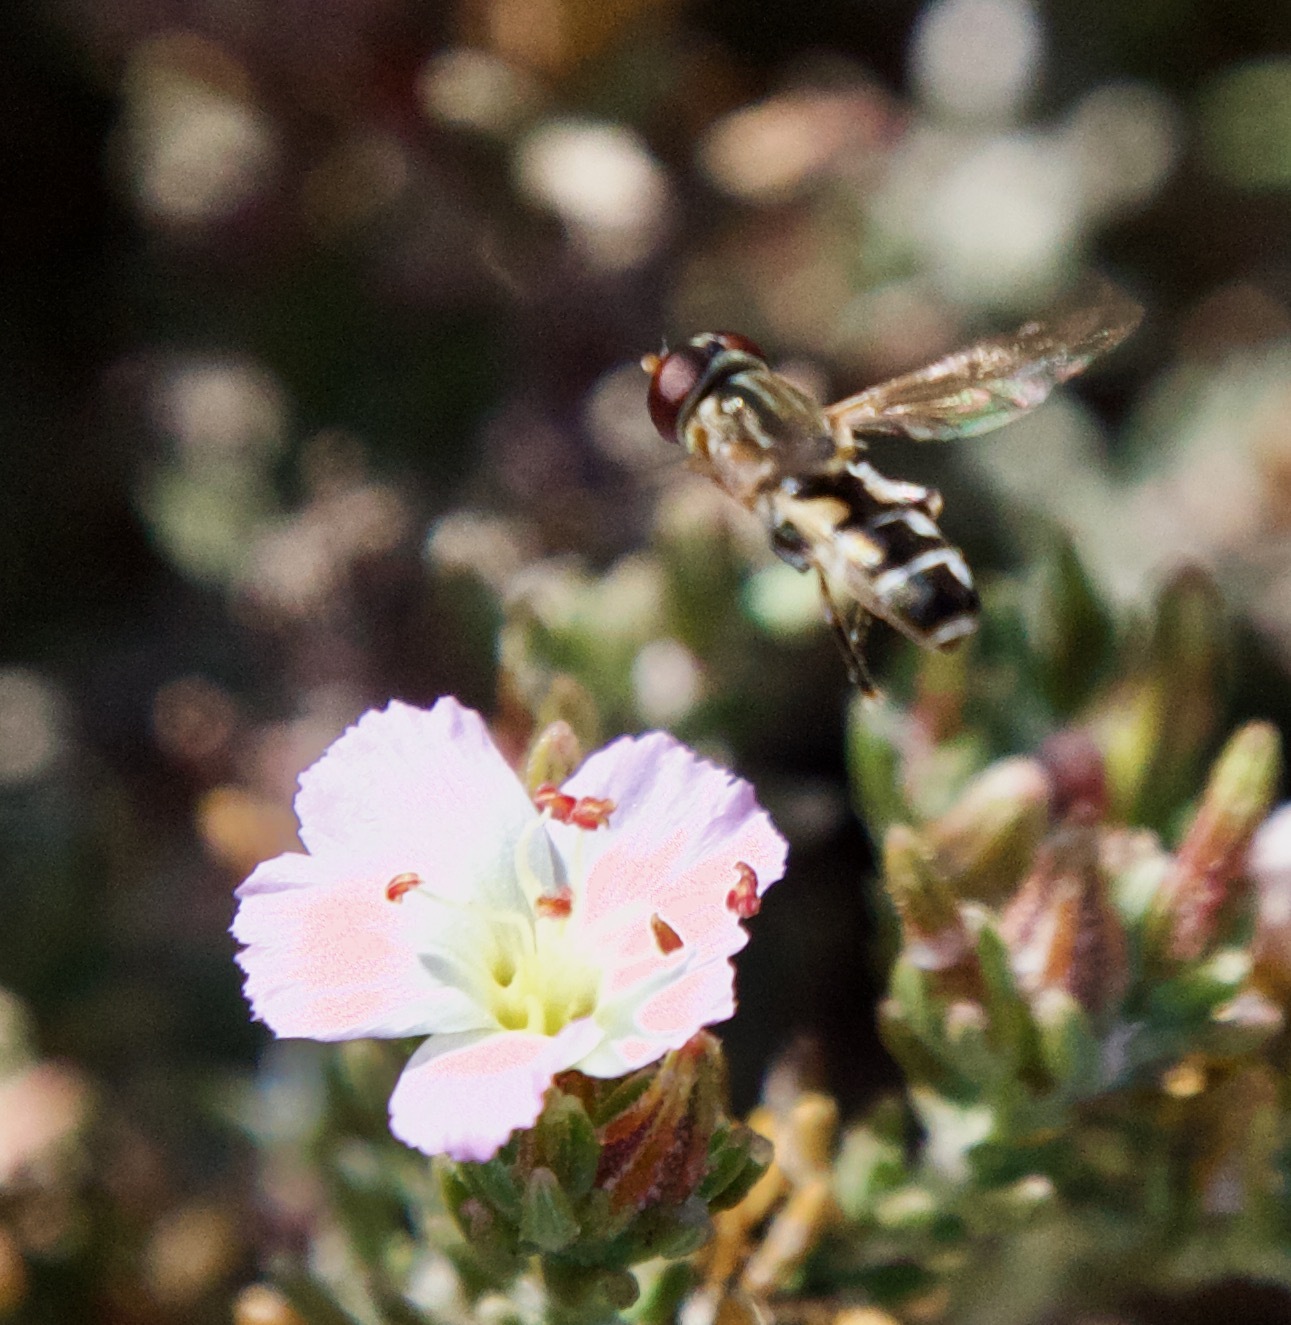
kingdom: Animalia
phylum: Arthropoda
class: Insecta
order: Diptera
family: Syrphidae
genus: Tropidia
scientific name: Tropidia flavimanus
